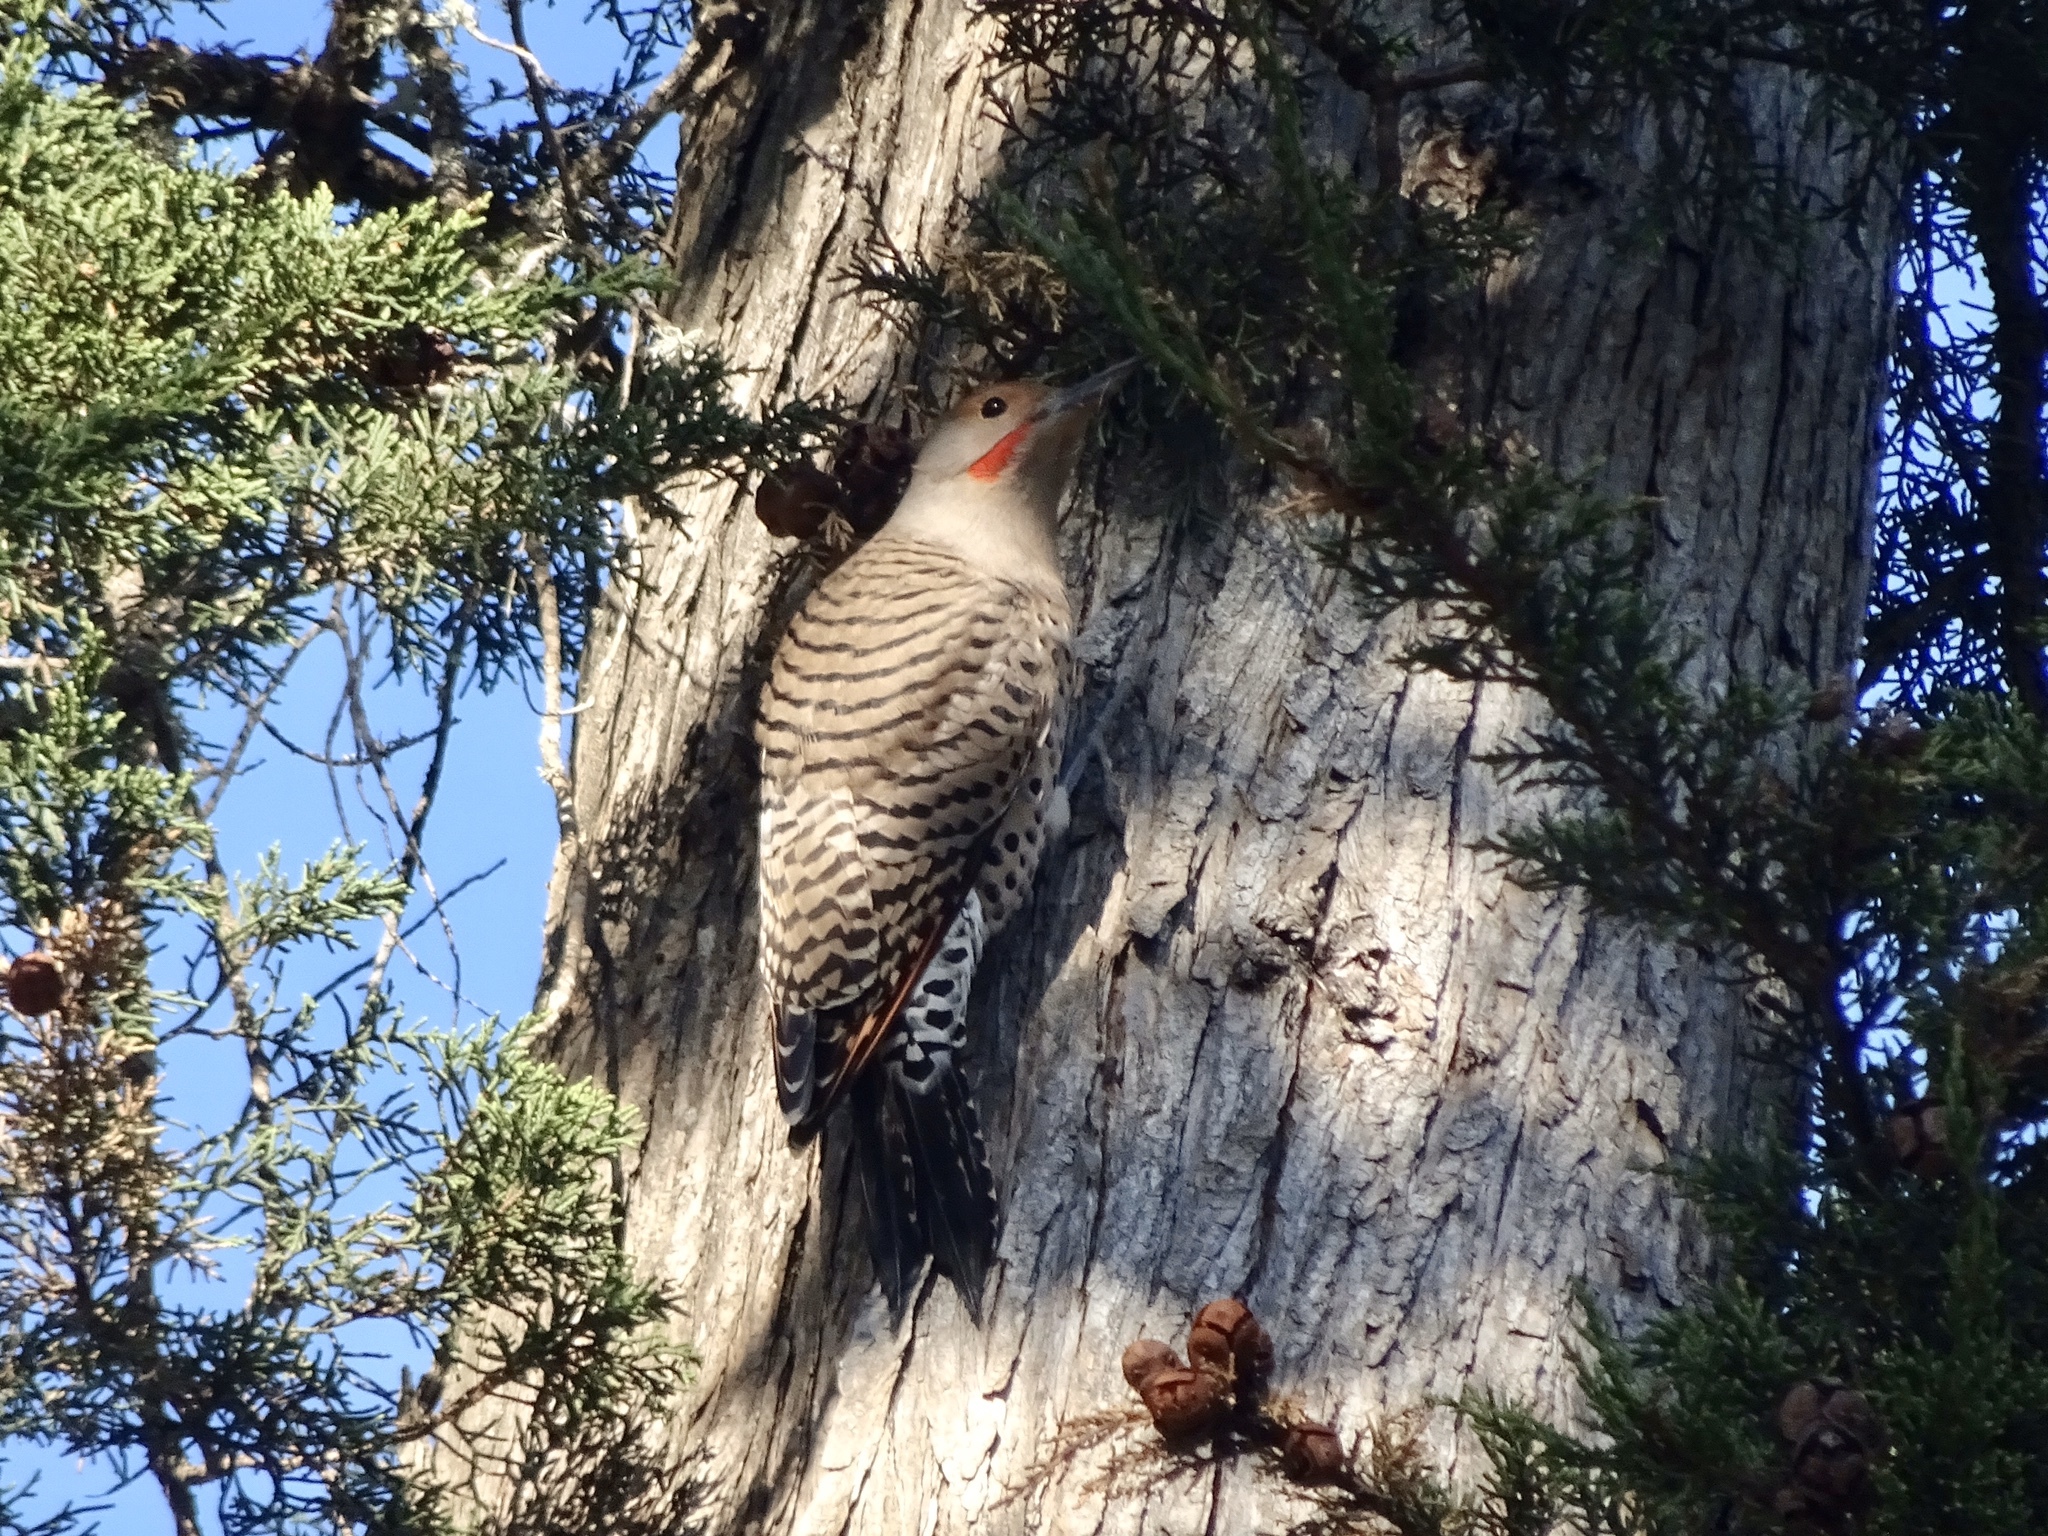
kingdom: Animalia
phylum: Chordata
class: Aves
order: Piciformes
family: Picidae
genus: Colaptes
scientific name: Colaptes auratus
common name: Northern flicker
